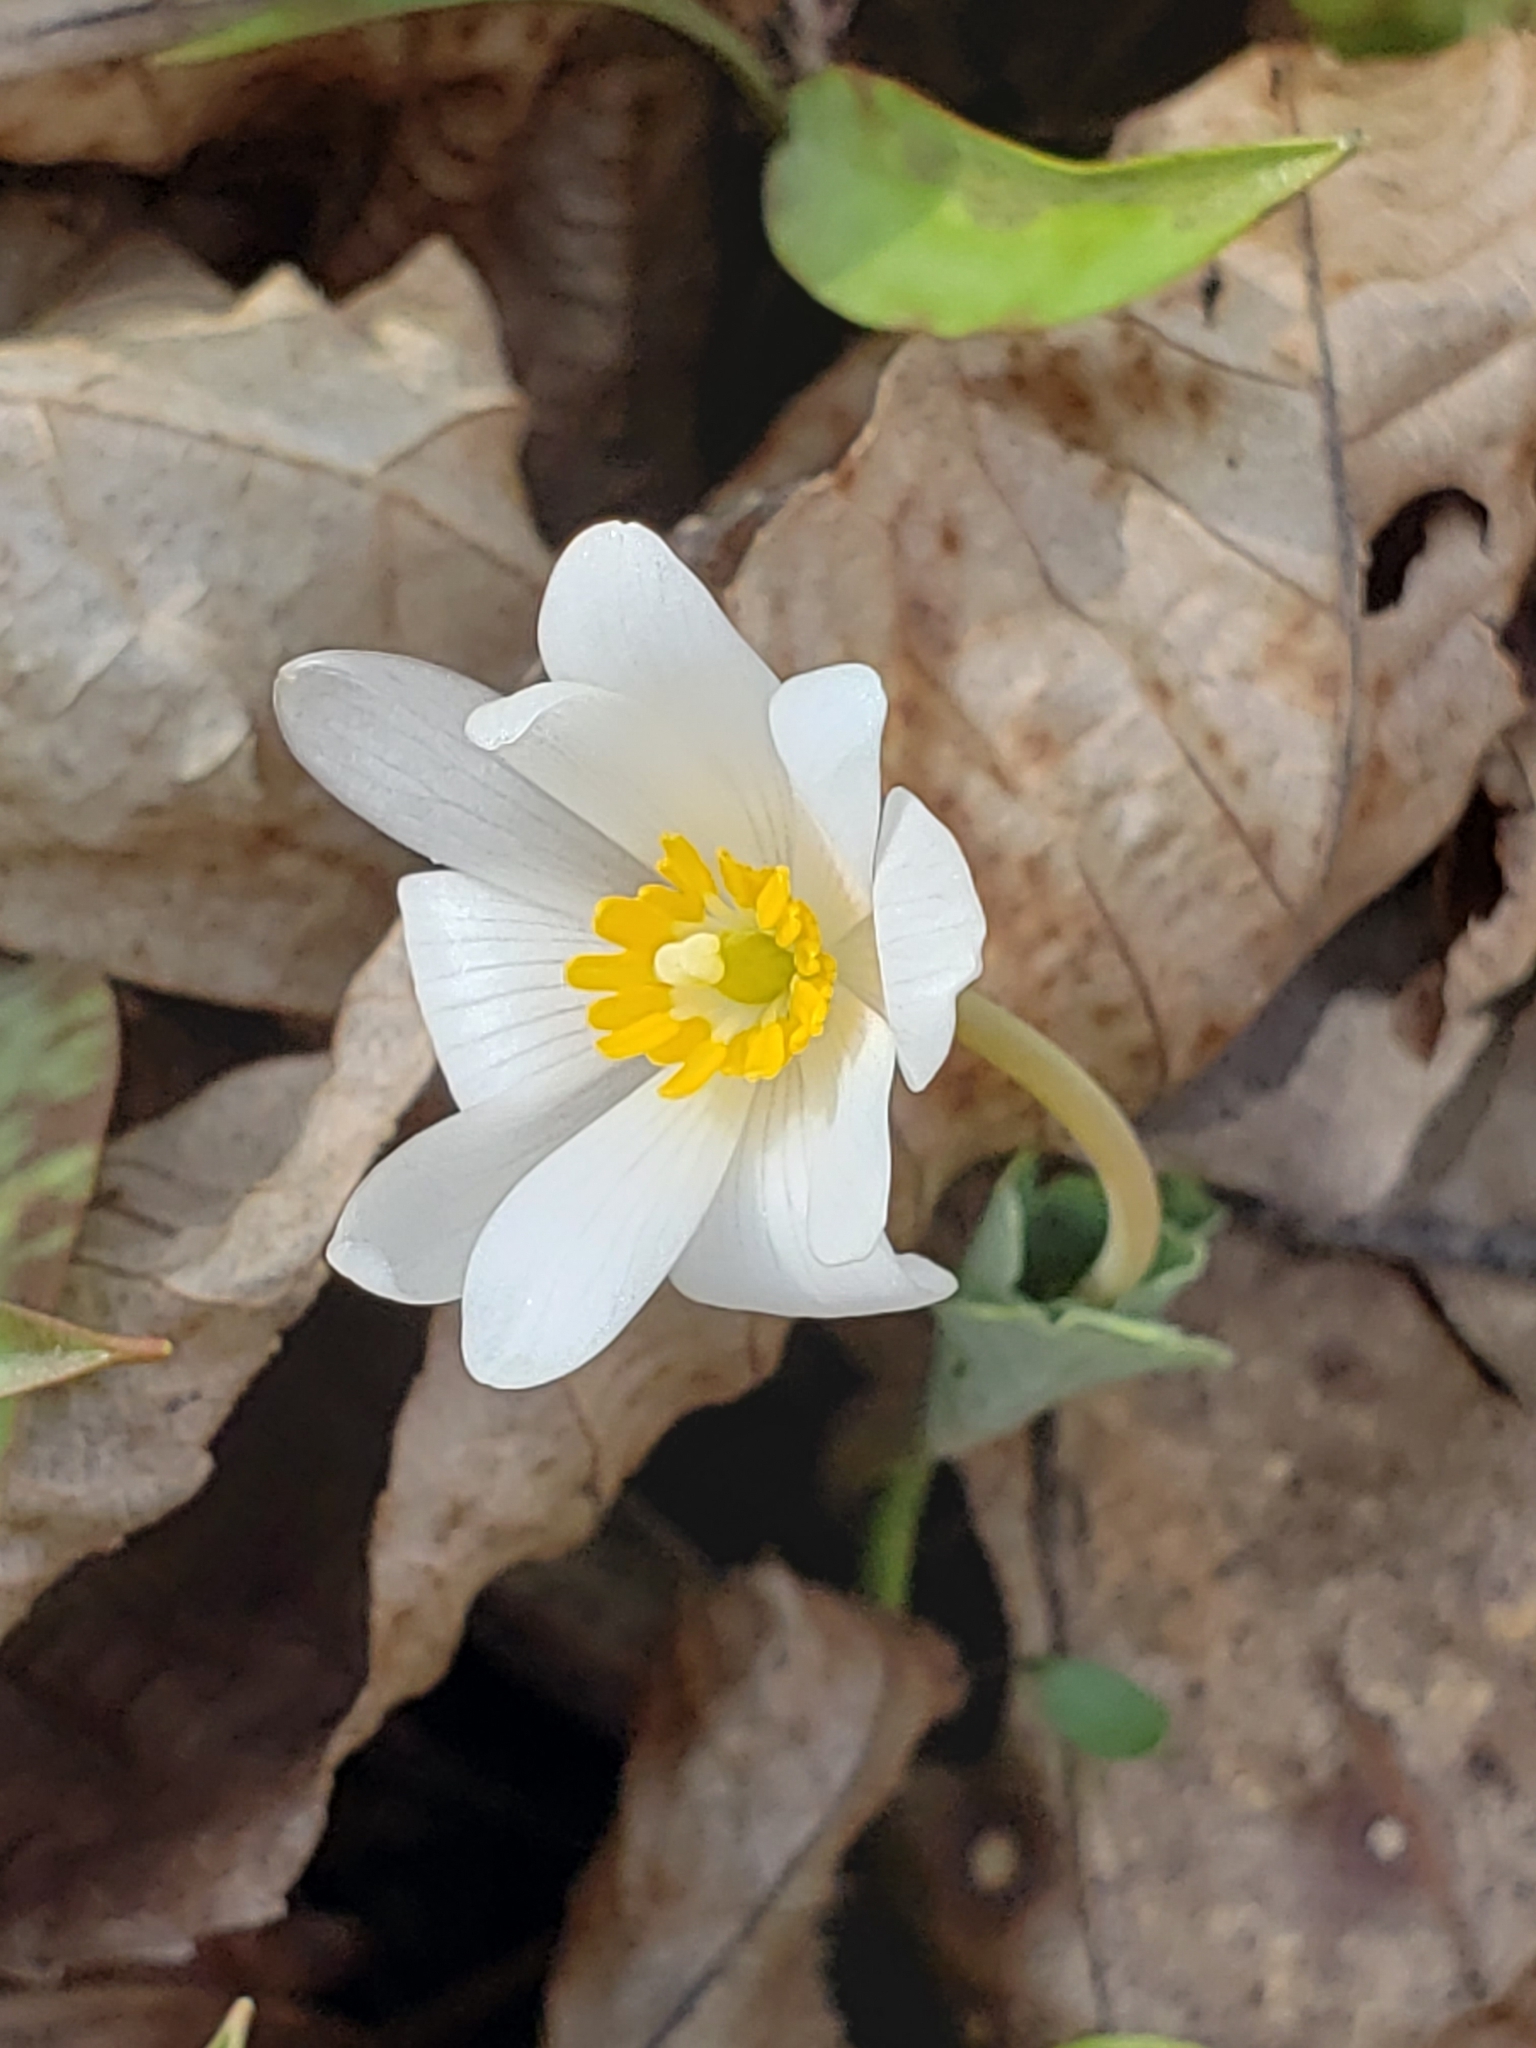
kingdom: Plantae
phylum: Tracheophyta
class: Magnoliopsida
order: Ranunculales
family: Papaveraceae
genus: Sanguinaria
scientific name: Sanguinaria canadensis
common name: Bloodroot
